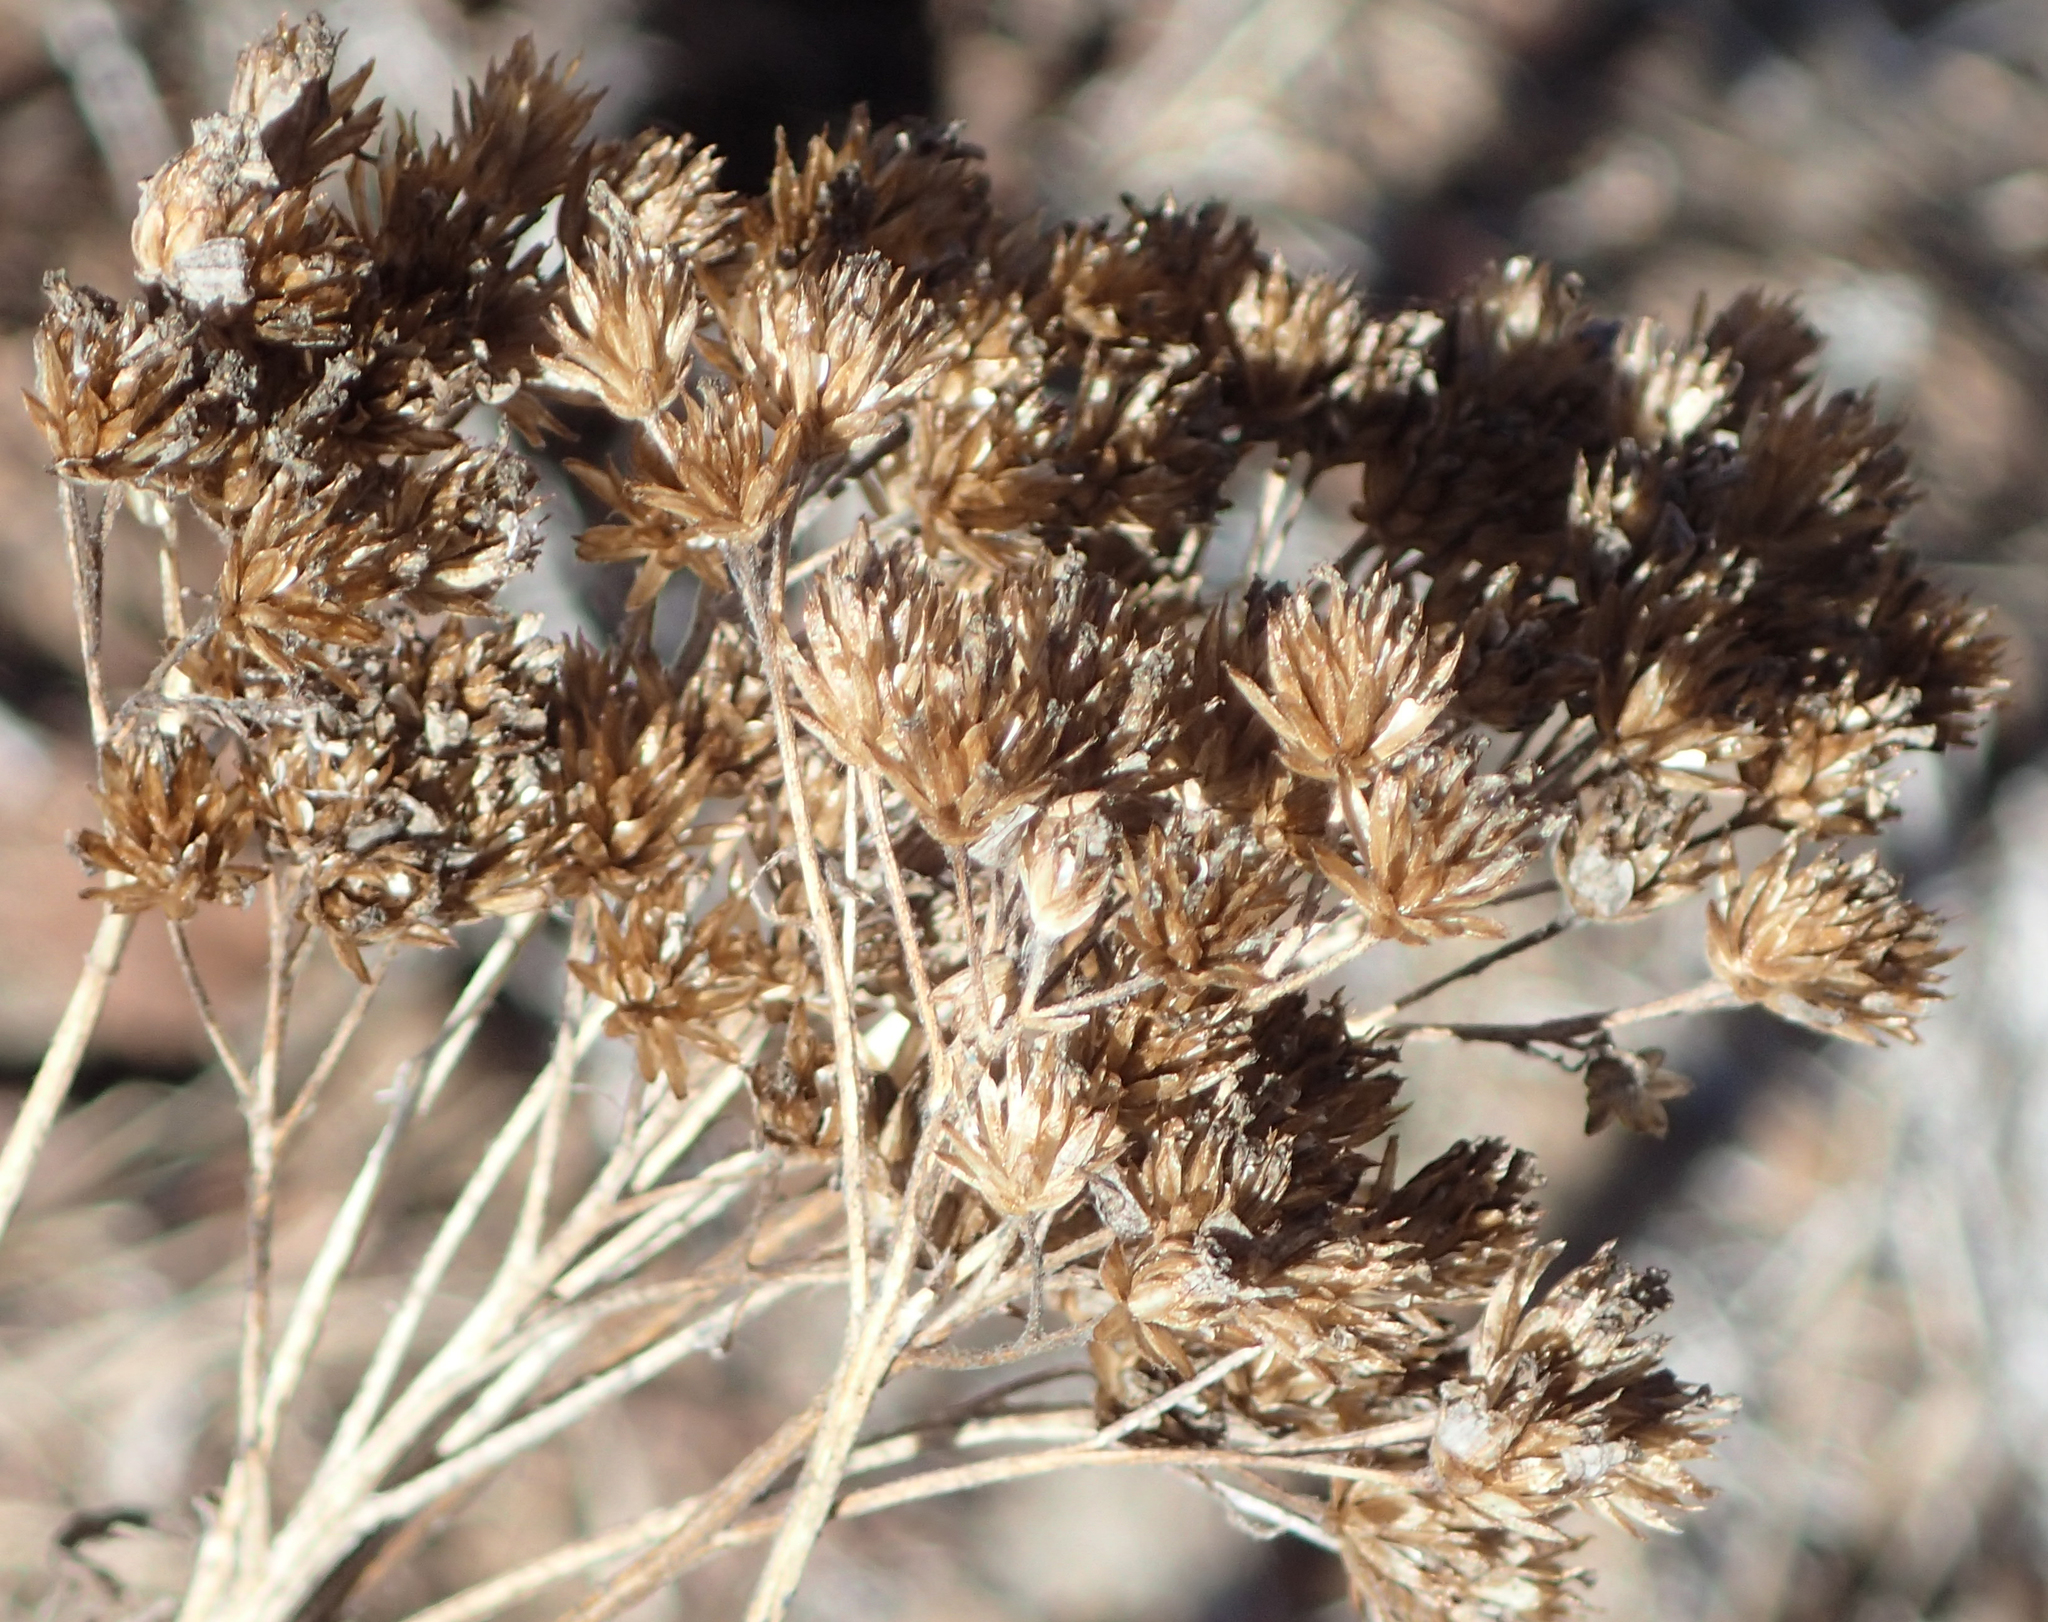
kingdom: Plantae
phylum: Tracheophyta
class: Magnoliopsida
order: Asterales
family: Asteraceae
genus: Achillea
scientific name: Achillea millefolium
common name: Yarrow
